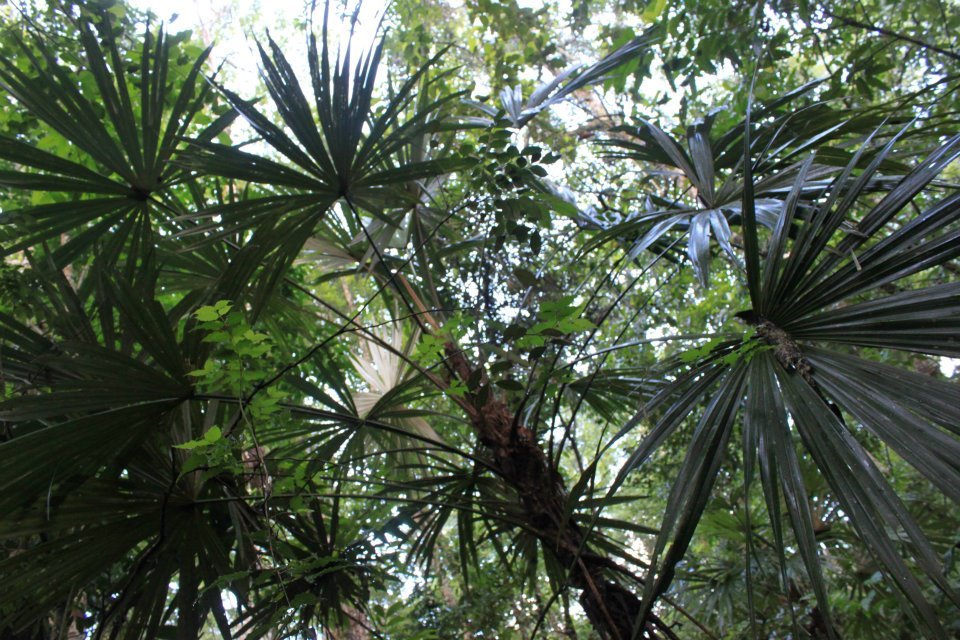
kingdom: Plantae
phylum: Tracheophyta
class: Liliopsida
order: Arecales
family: Arecaceae
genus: Cryosophila
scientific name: Cryosophila stauracantha
